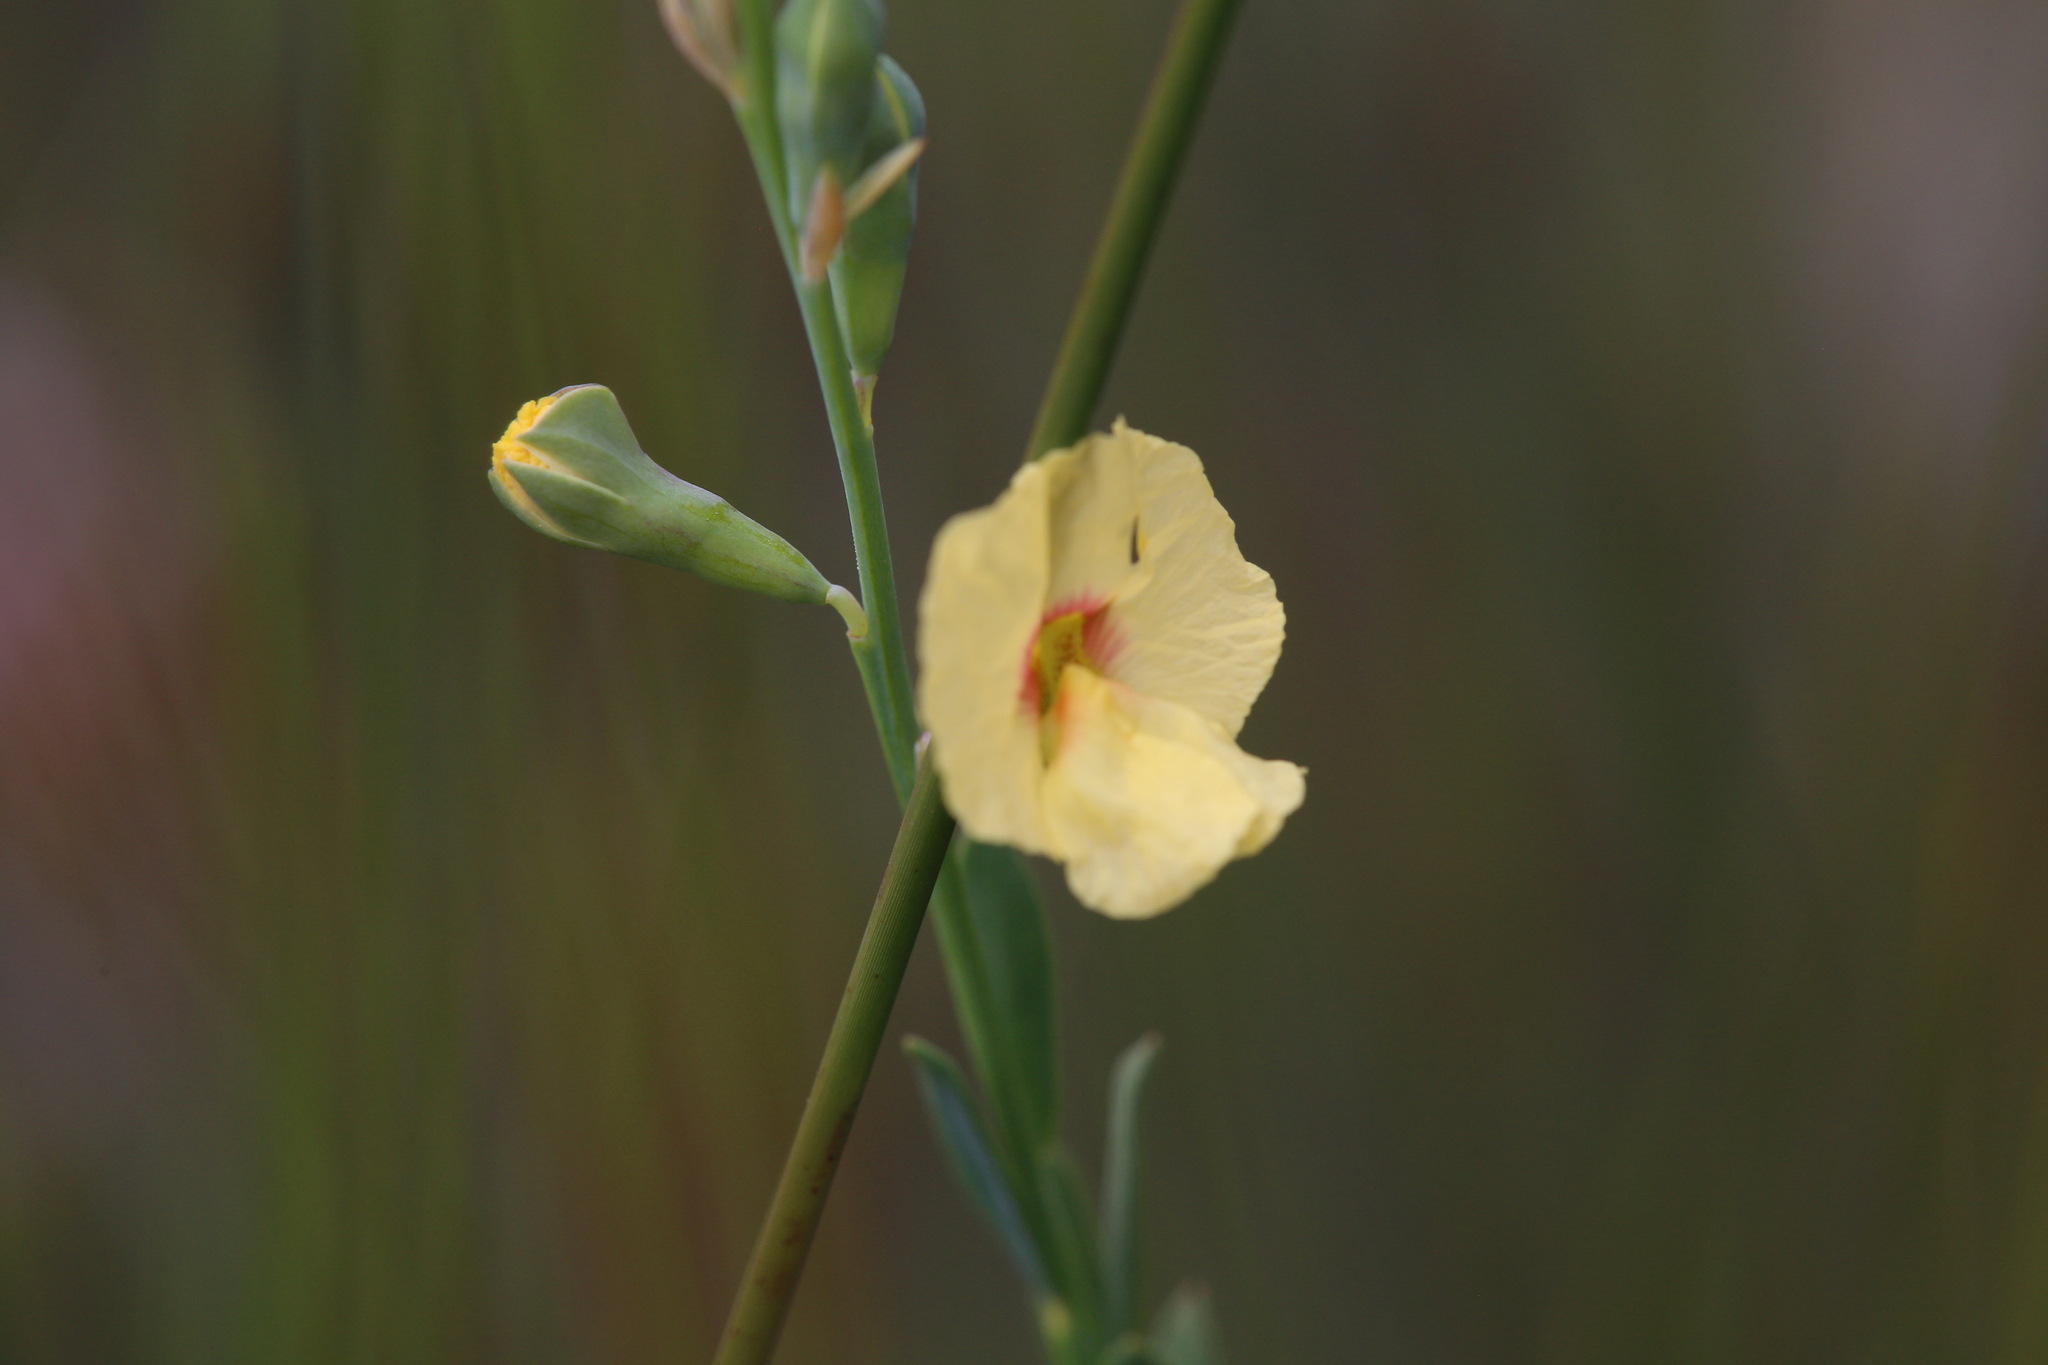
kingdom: Plantae
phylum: Tracheophyta
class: Magnoliopsida
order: Fabales
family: Fabaceae
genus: Sphaerolobium
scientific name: Sphaerolobium nudiflorum
